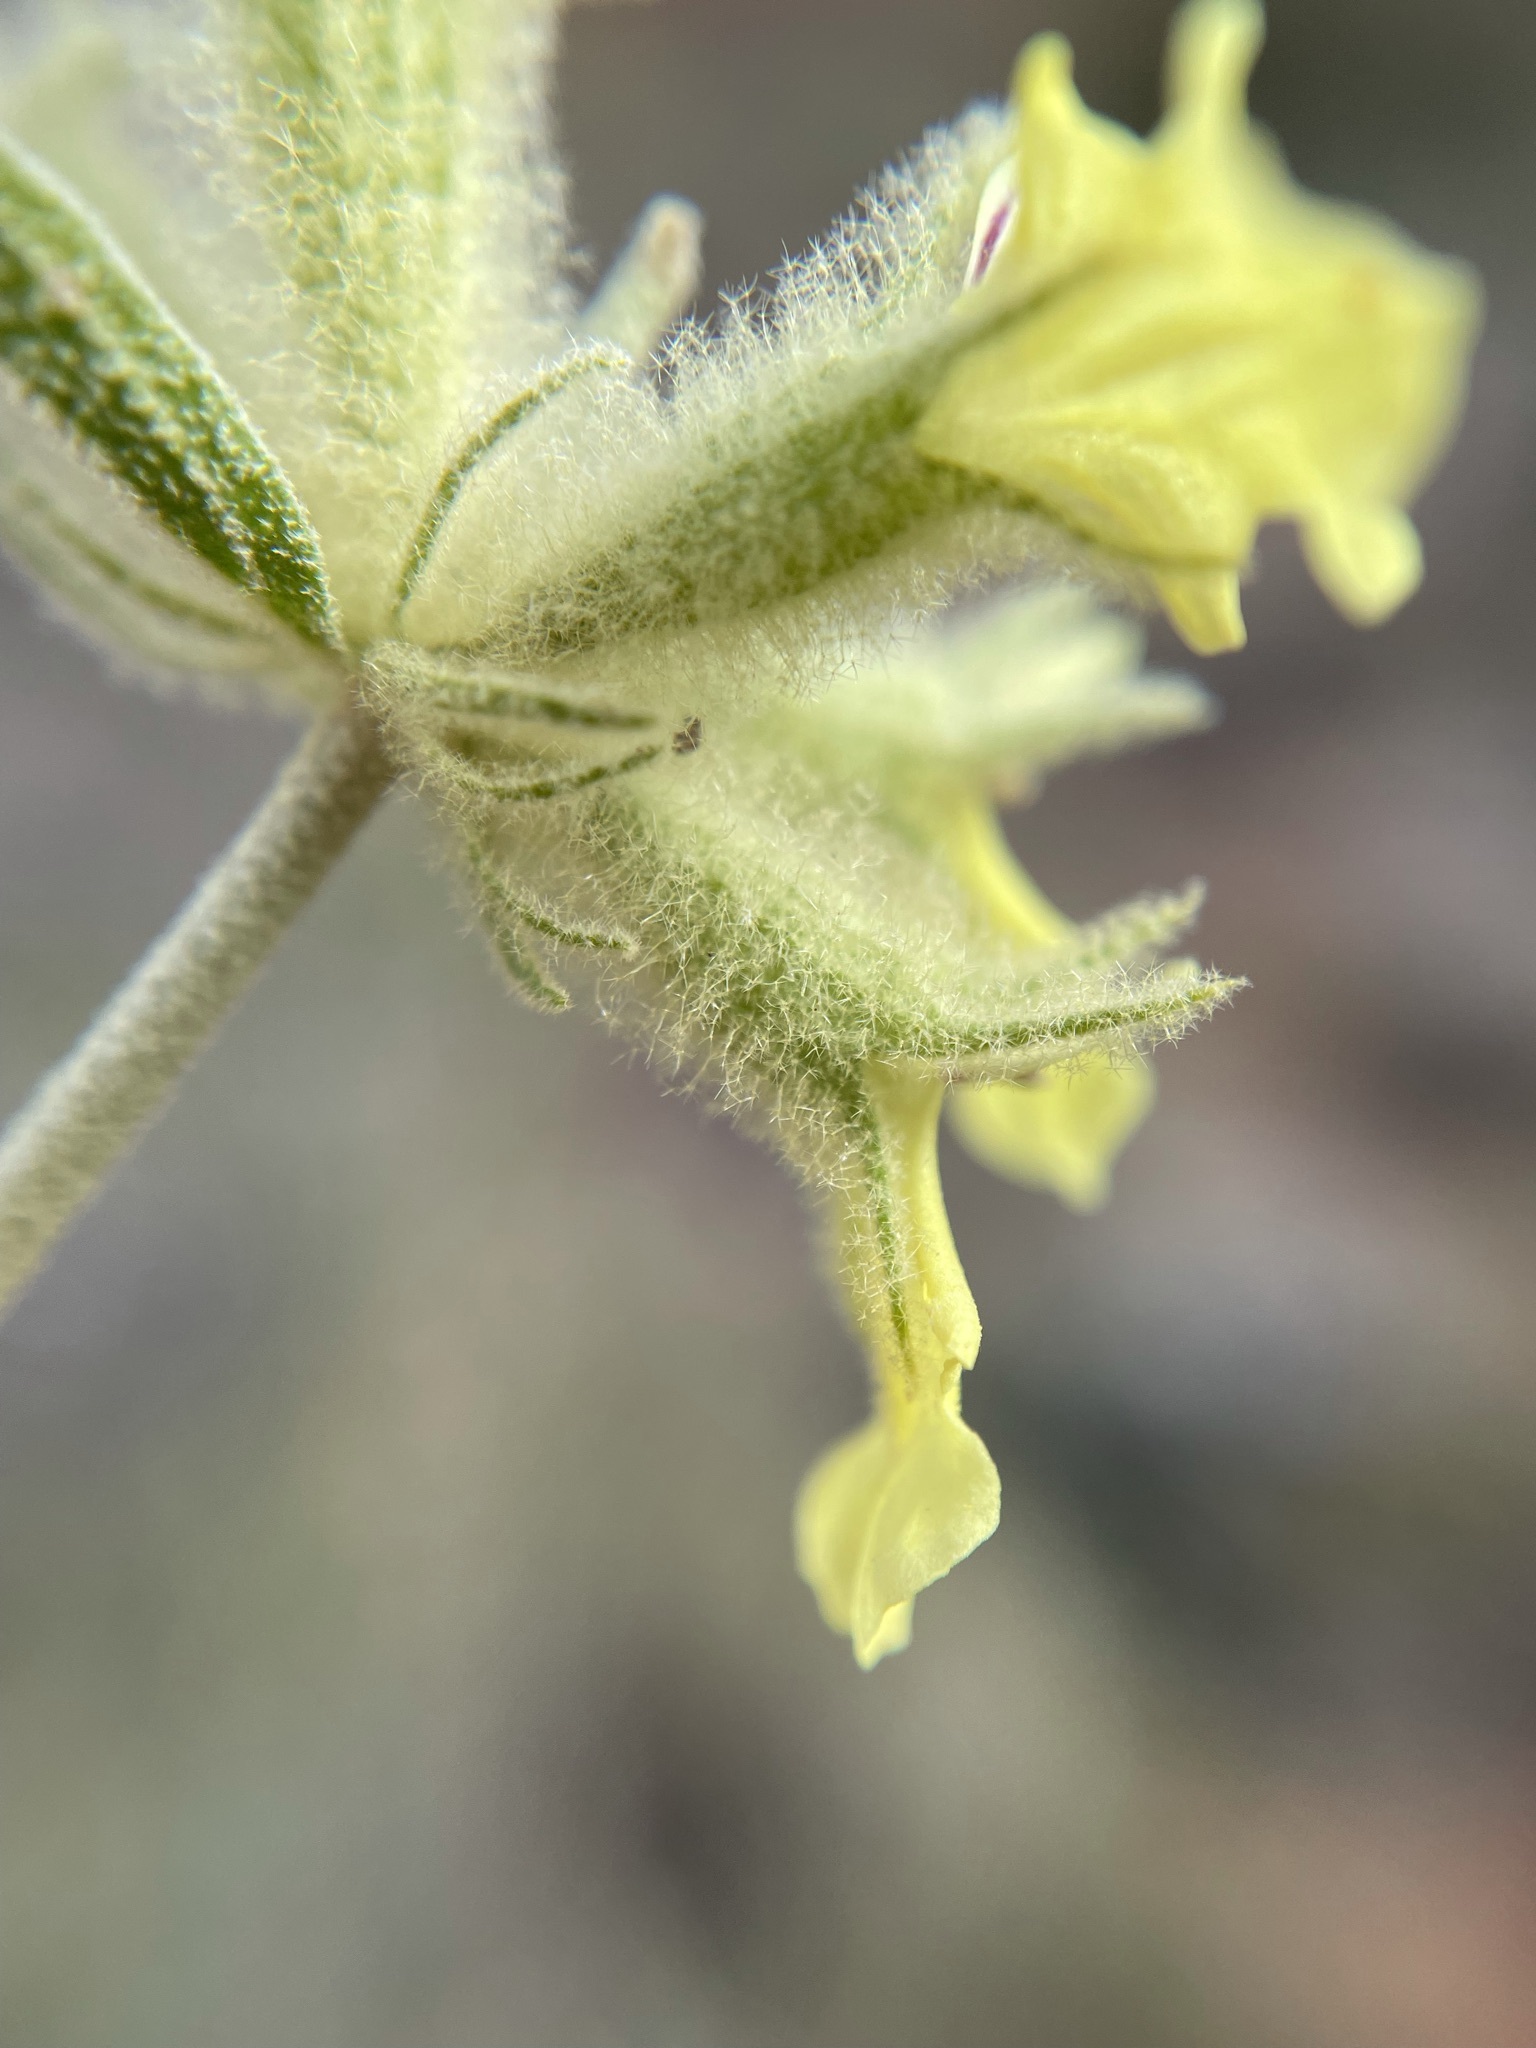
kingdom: Plantae
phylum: Tracheophyta
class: Magnoliopsida
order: Lamiales
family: Lamiaceae
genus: Stachys
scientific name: Stachys aurea
